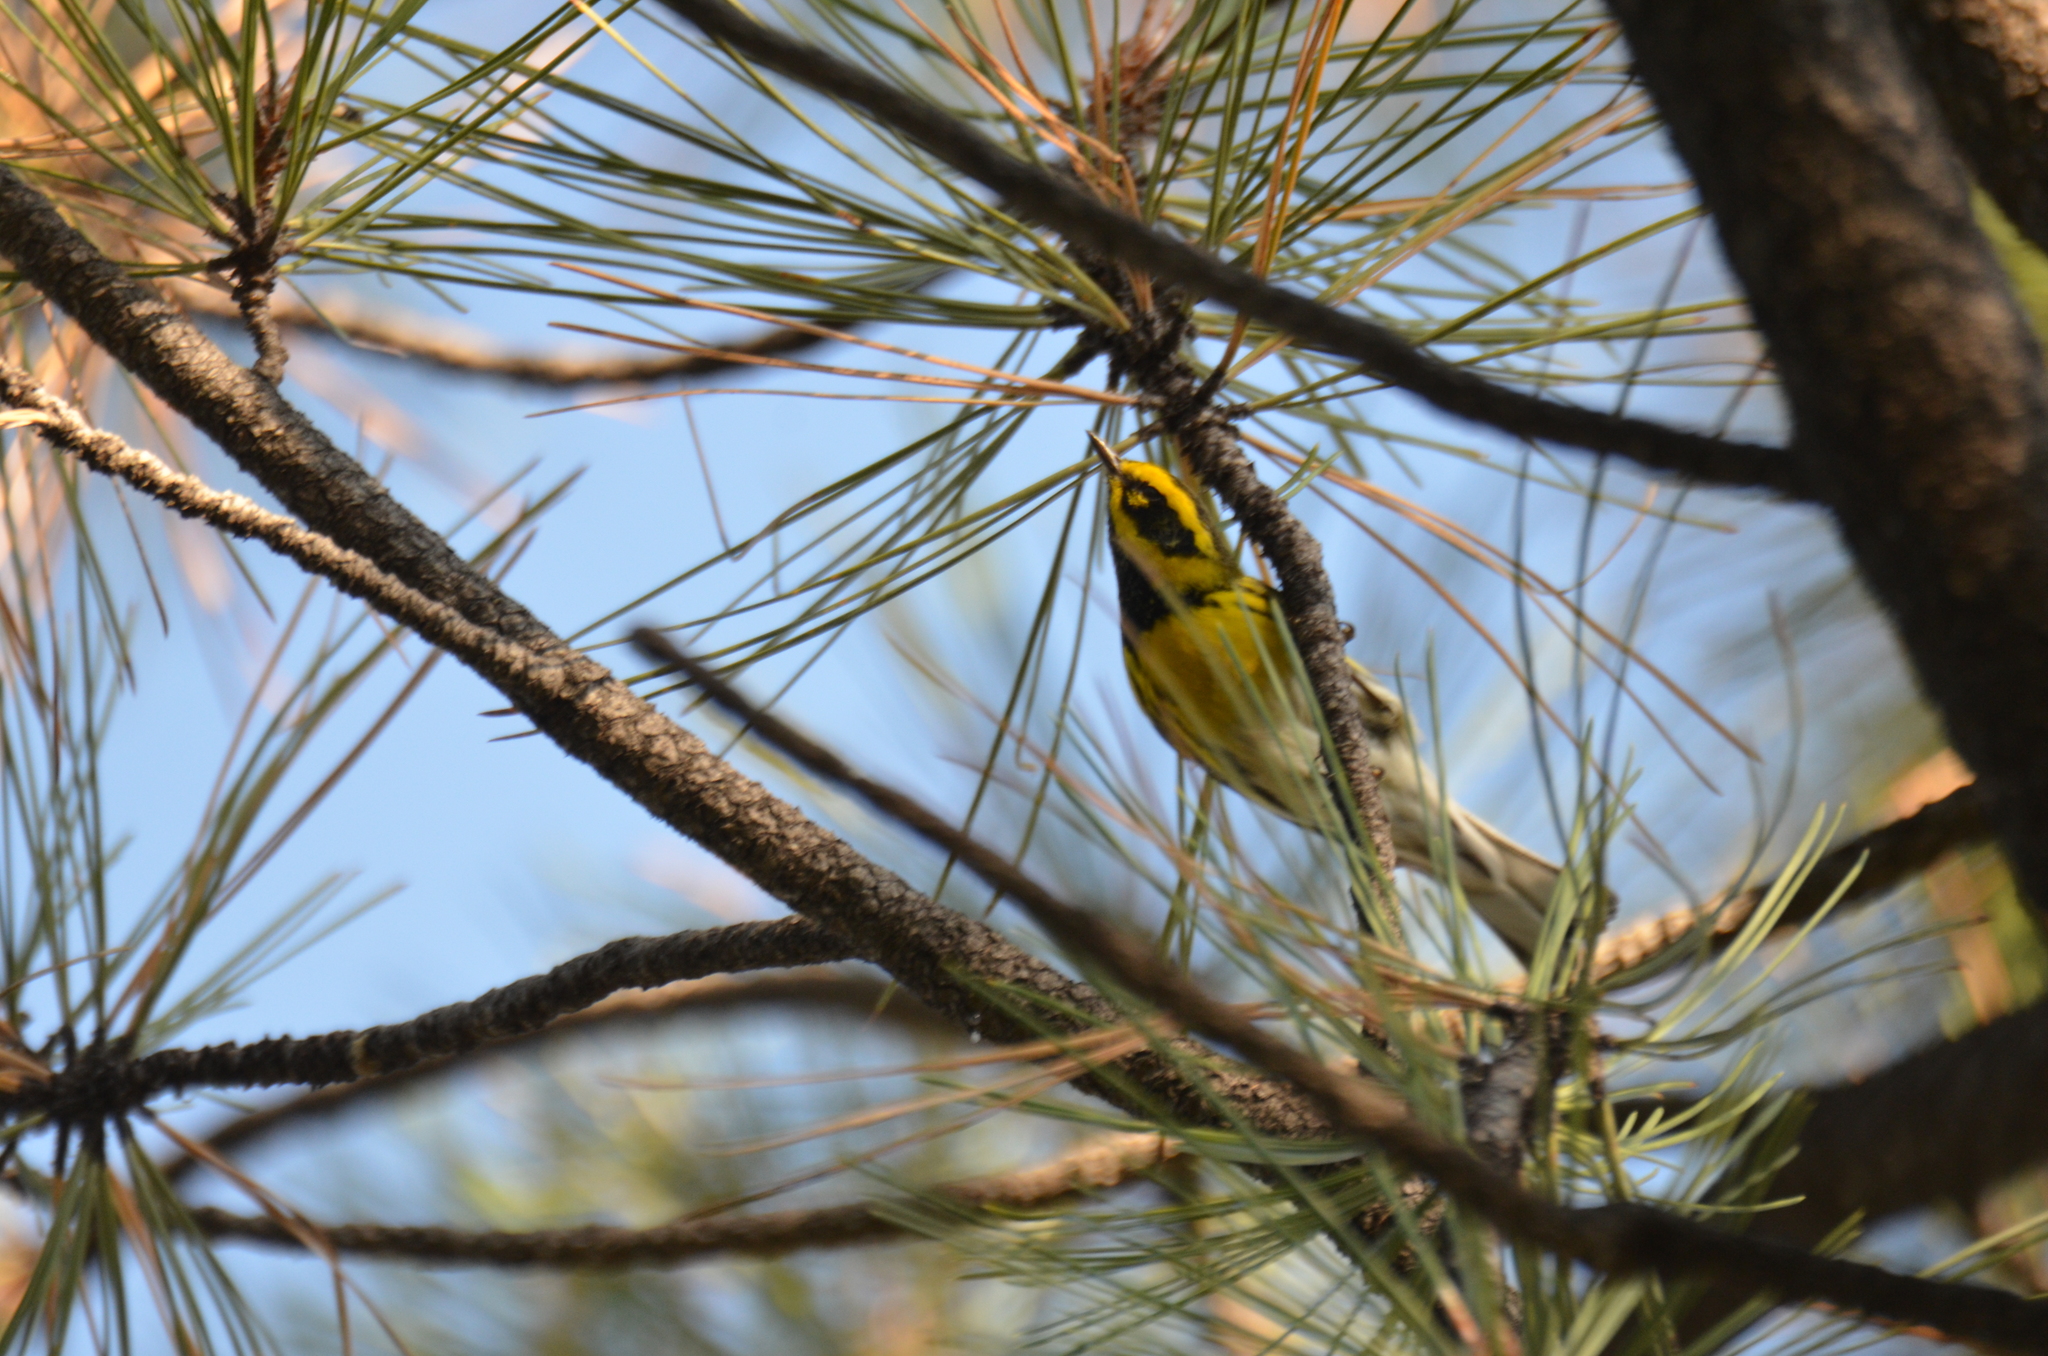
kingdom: Animalia
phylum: Chordata
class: Aves
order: Passeriformes
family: Parulidae
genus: Setophaga
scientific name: Setophaga townsendi
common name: Townsend's warbler
